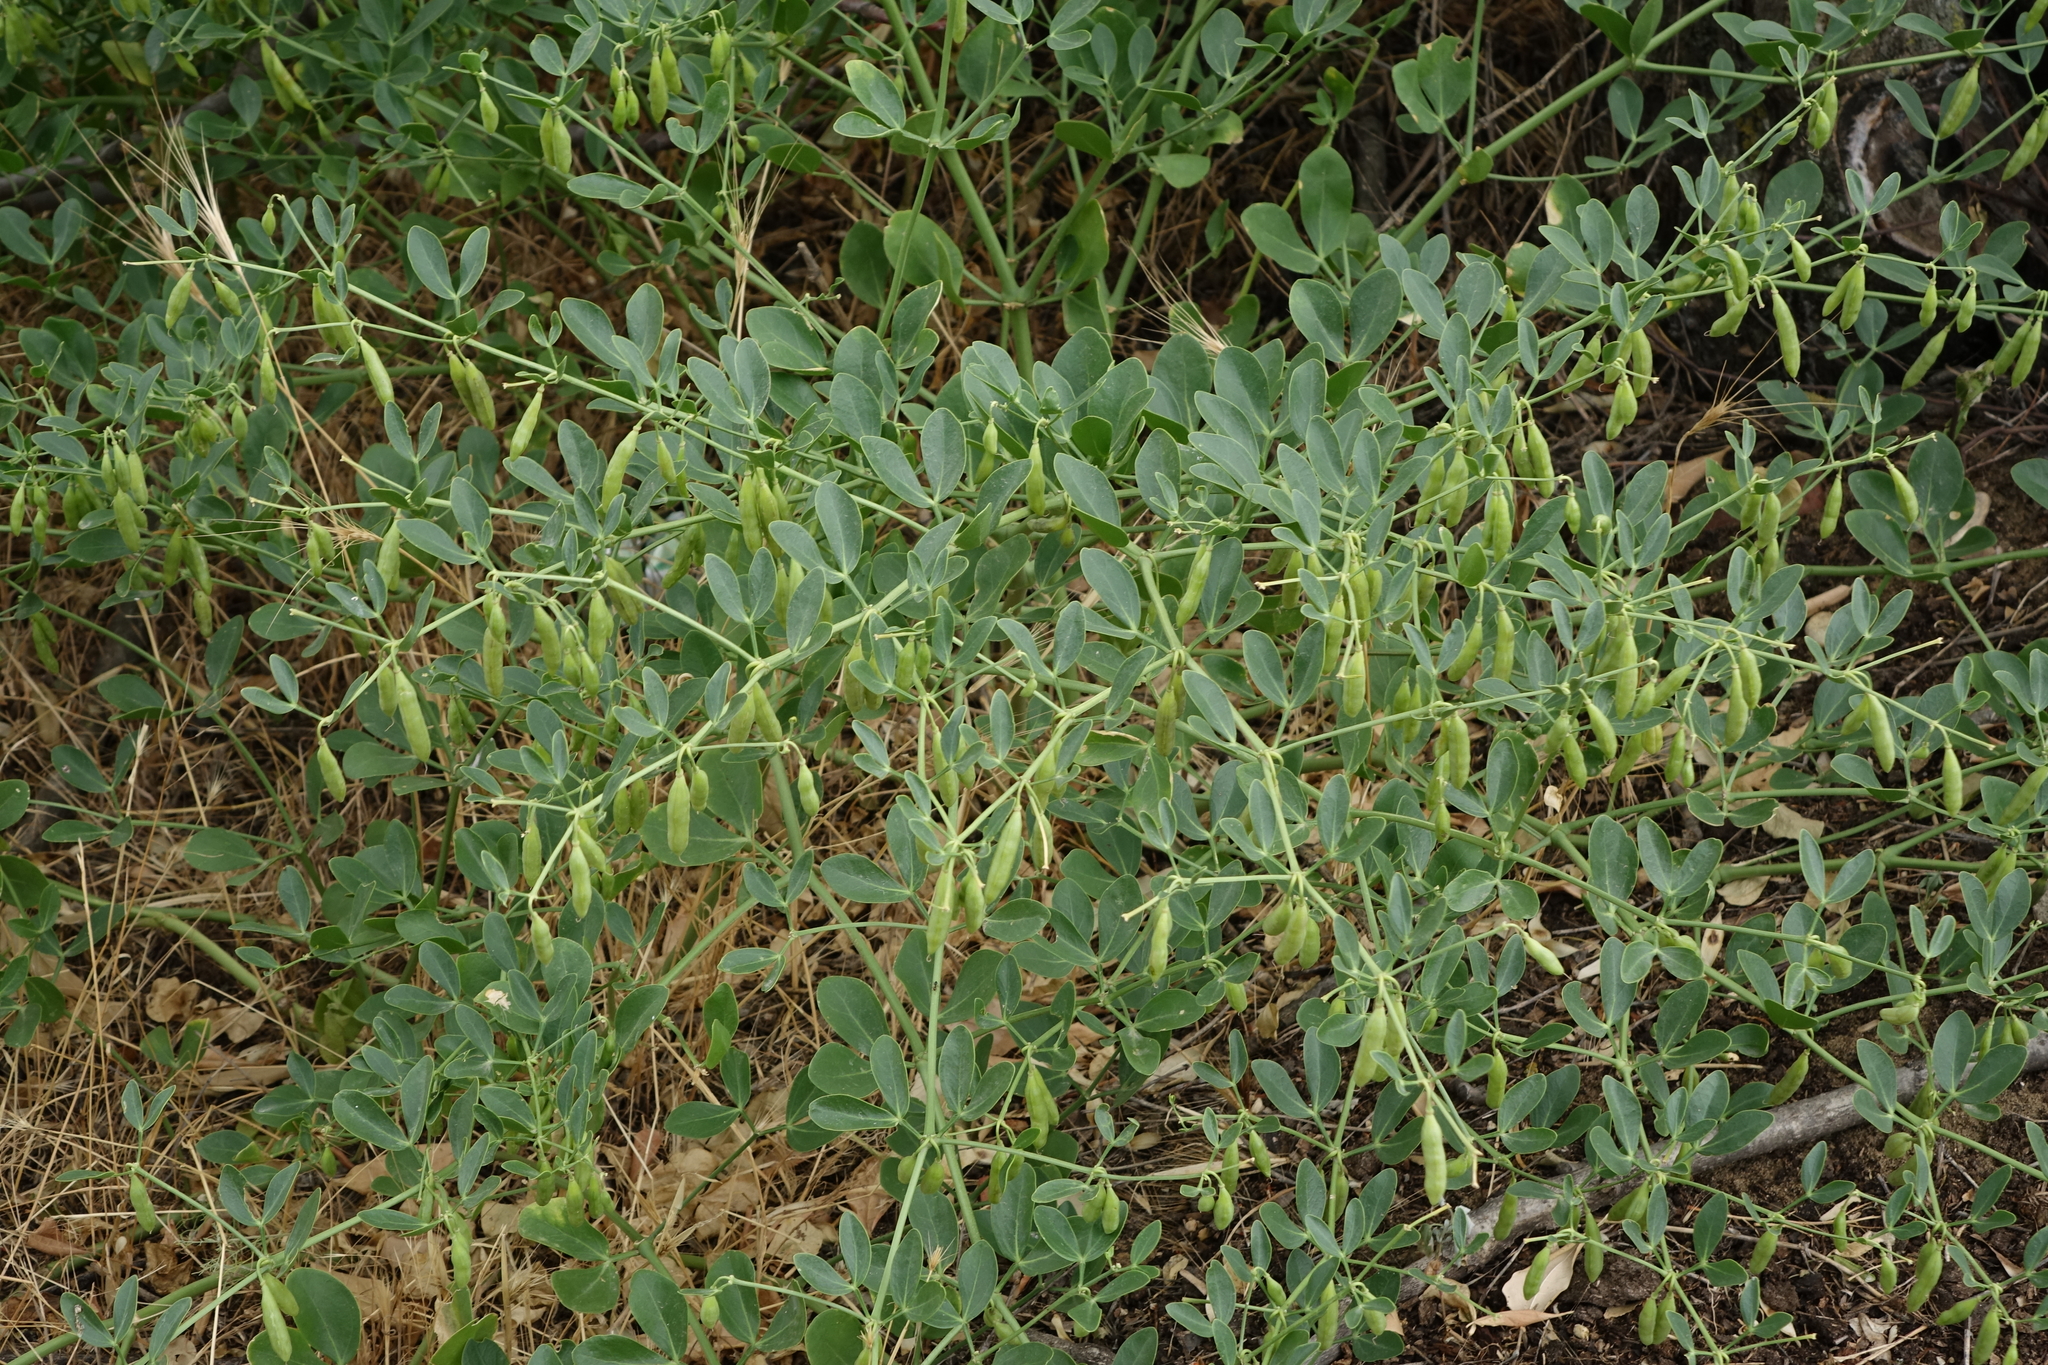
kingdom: Plantae
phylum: Tracheophyta
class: Magnoliopsida
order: Zygophyllales
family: Zygophyllaceae
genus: Zygophyllum
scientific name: Zygophyllum fabago
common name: Syrian beancaper
